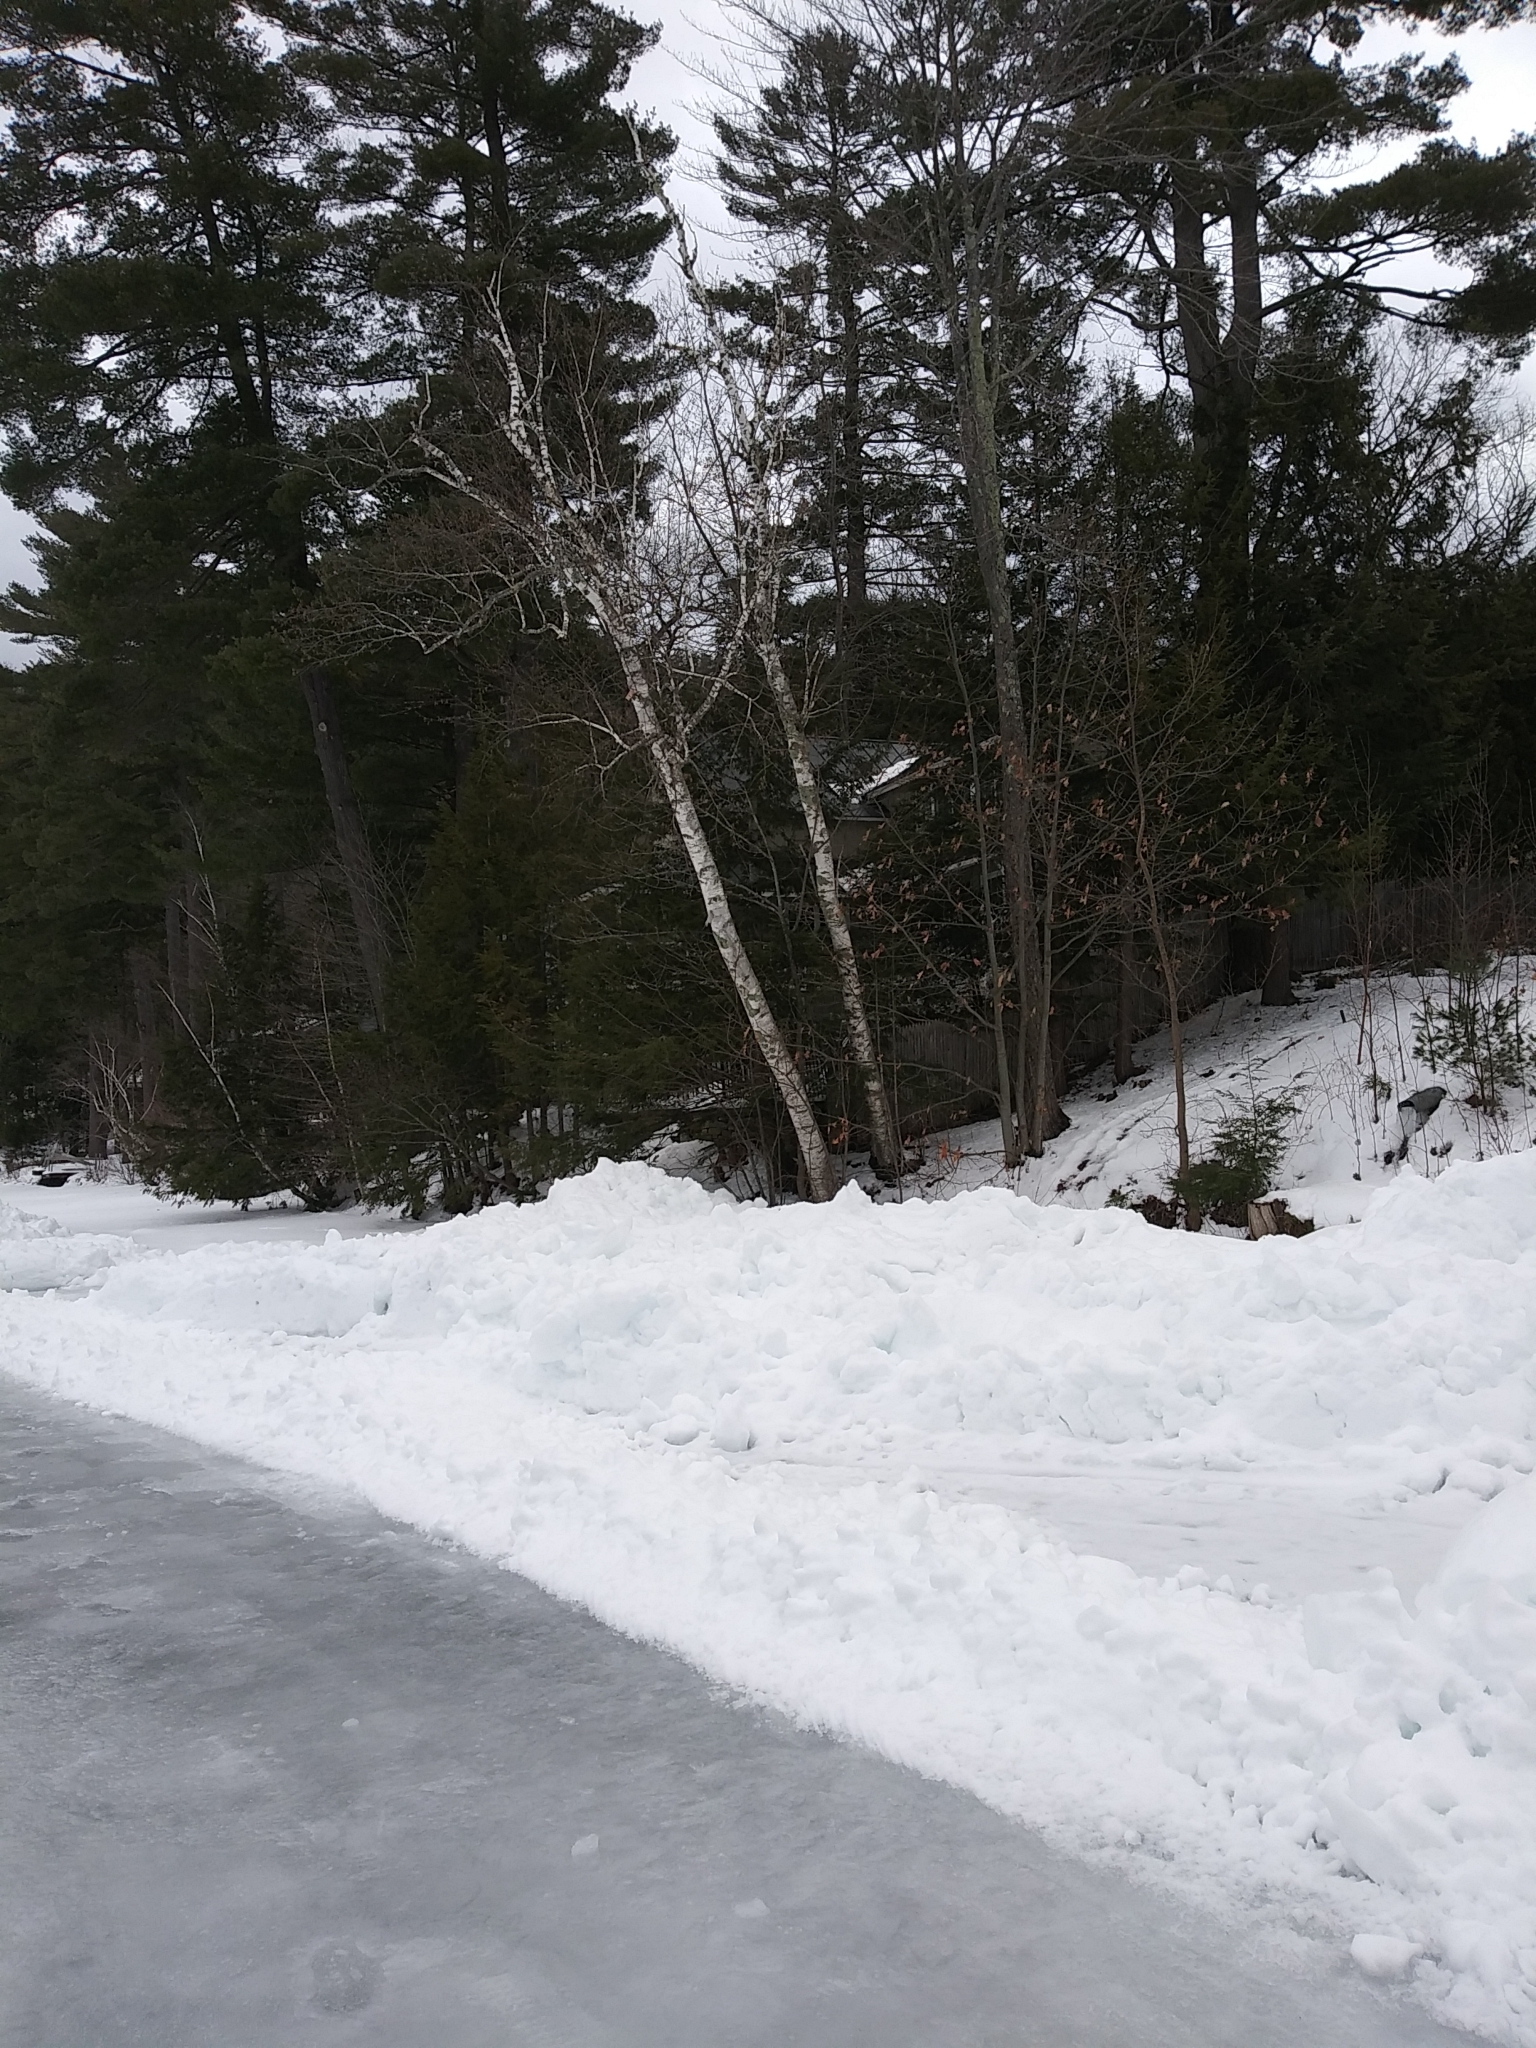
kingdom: Plantae
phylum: Tracheophyta
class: Magnoliopsida
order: Fagales
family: Betulaceae
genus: Betula
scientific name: Betula papyrifera
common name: Paper birch
